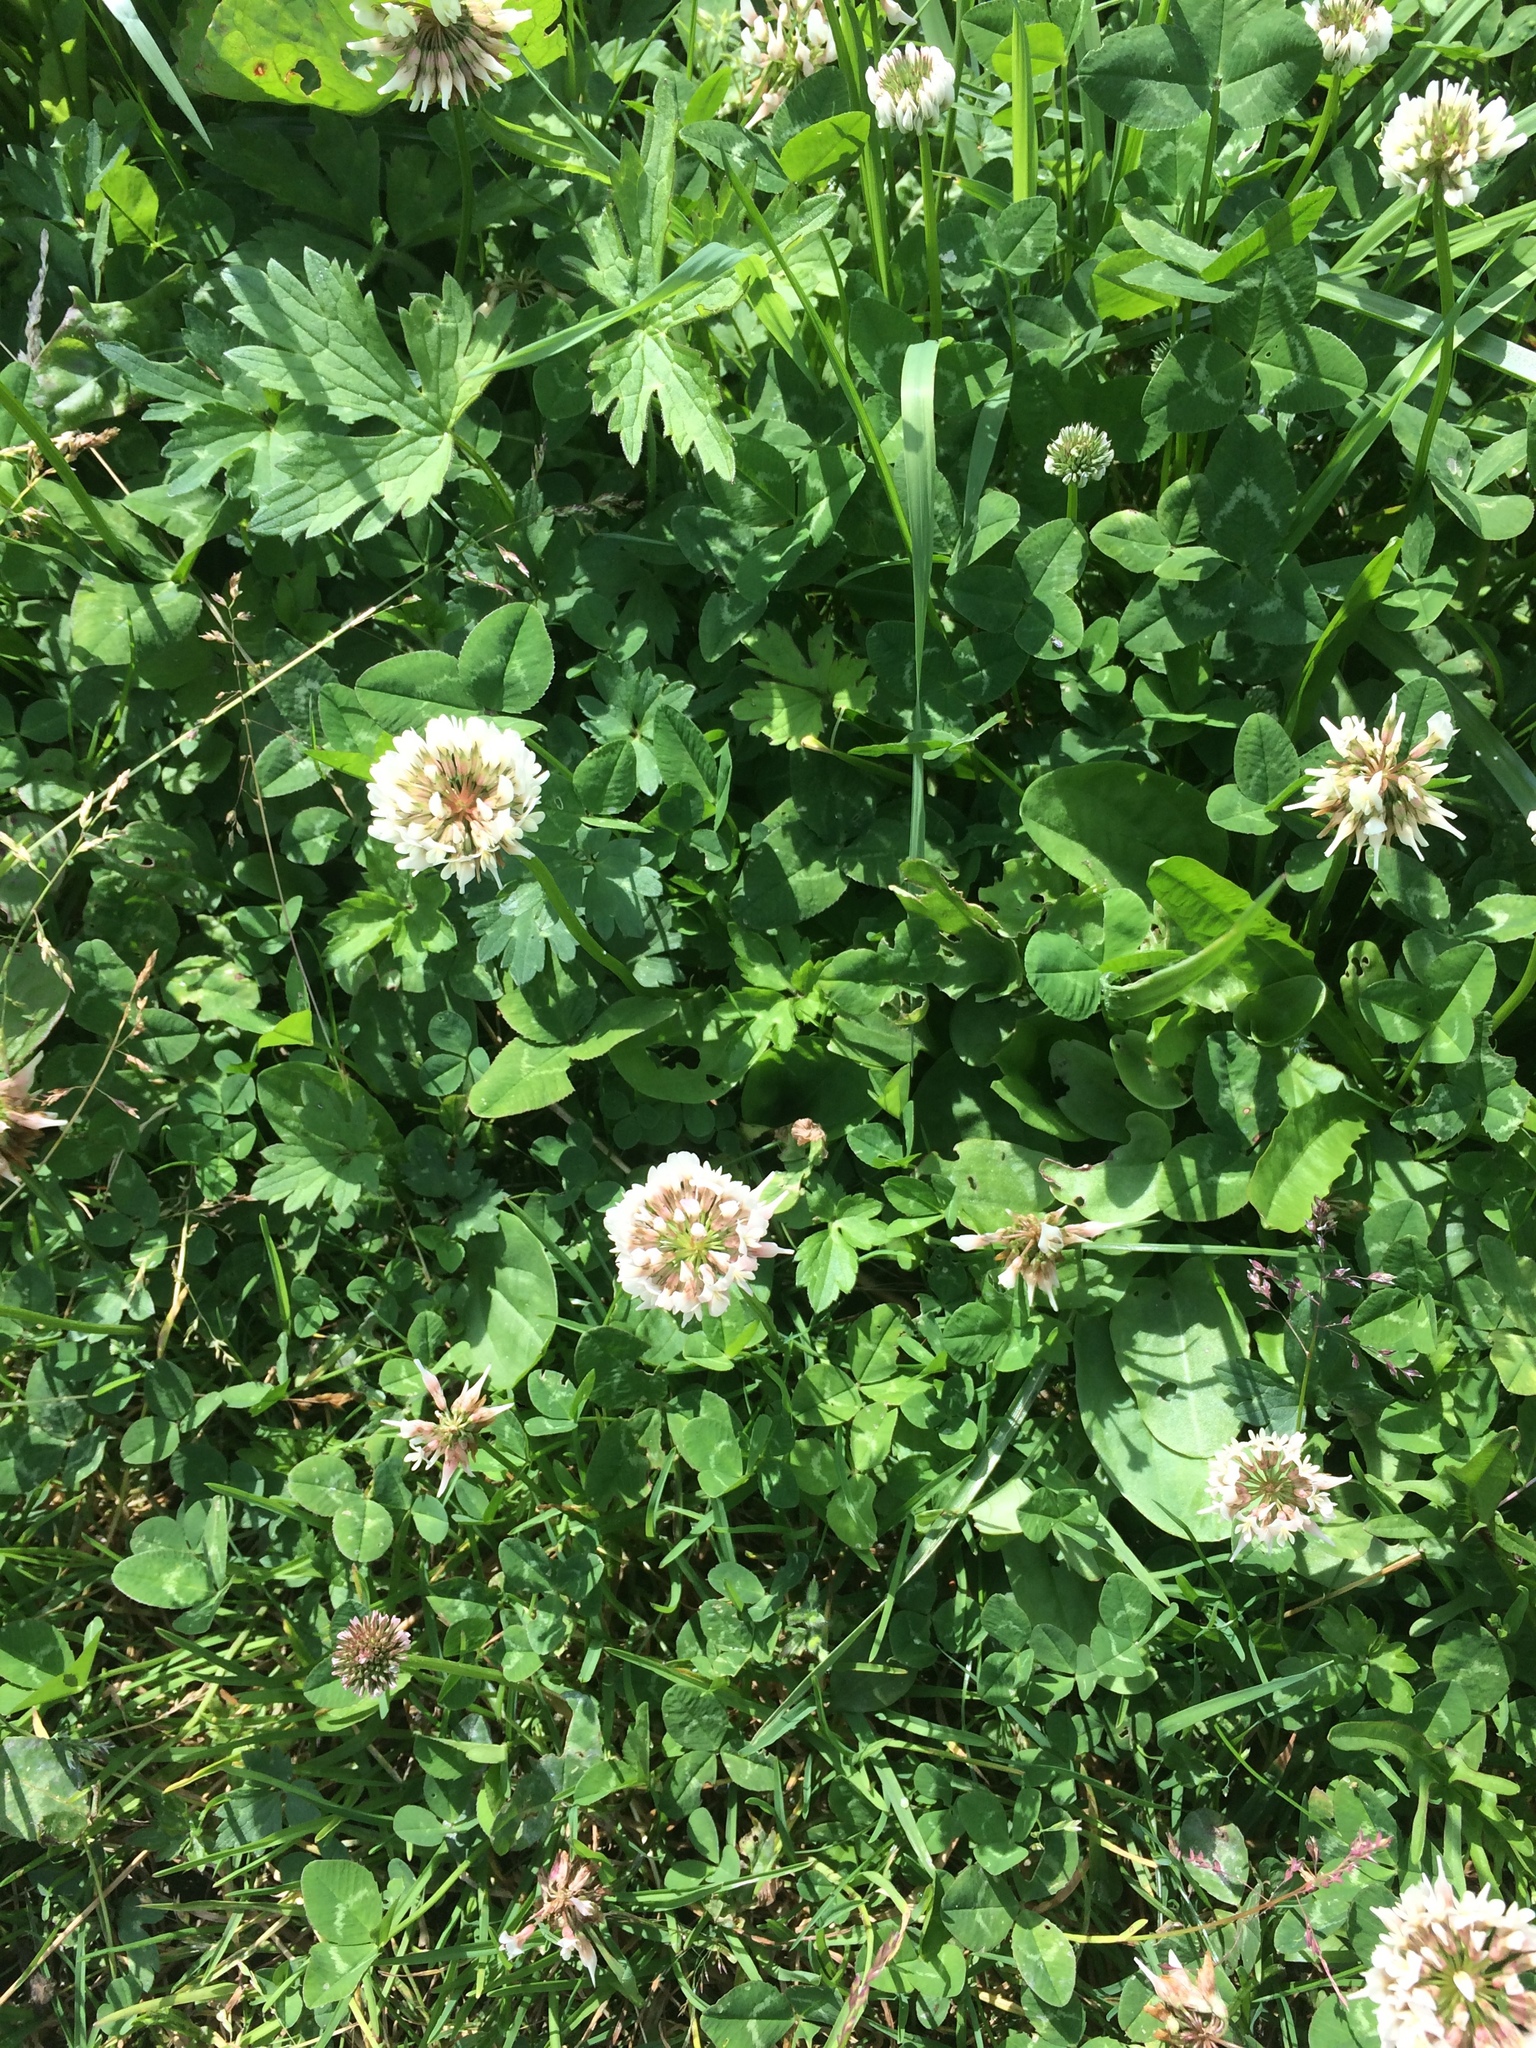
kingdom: Plantae
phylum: Tracheophyta
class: Magnoliopsida
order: Fabales
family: Fabaceae
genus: Trifolium
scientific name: Trifolium repens
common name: White clover
